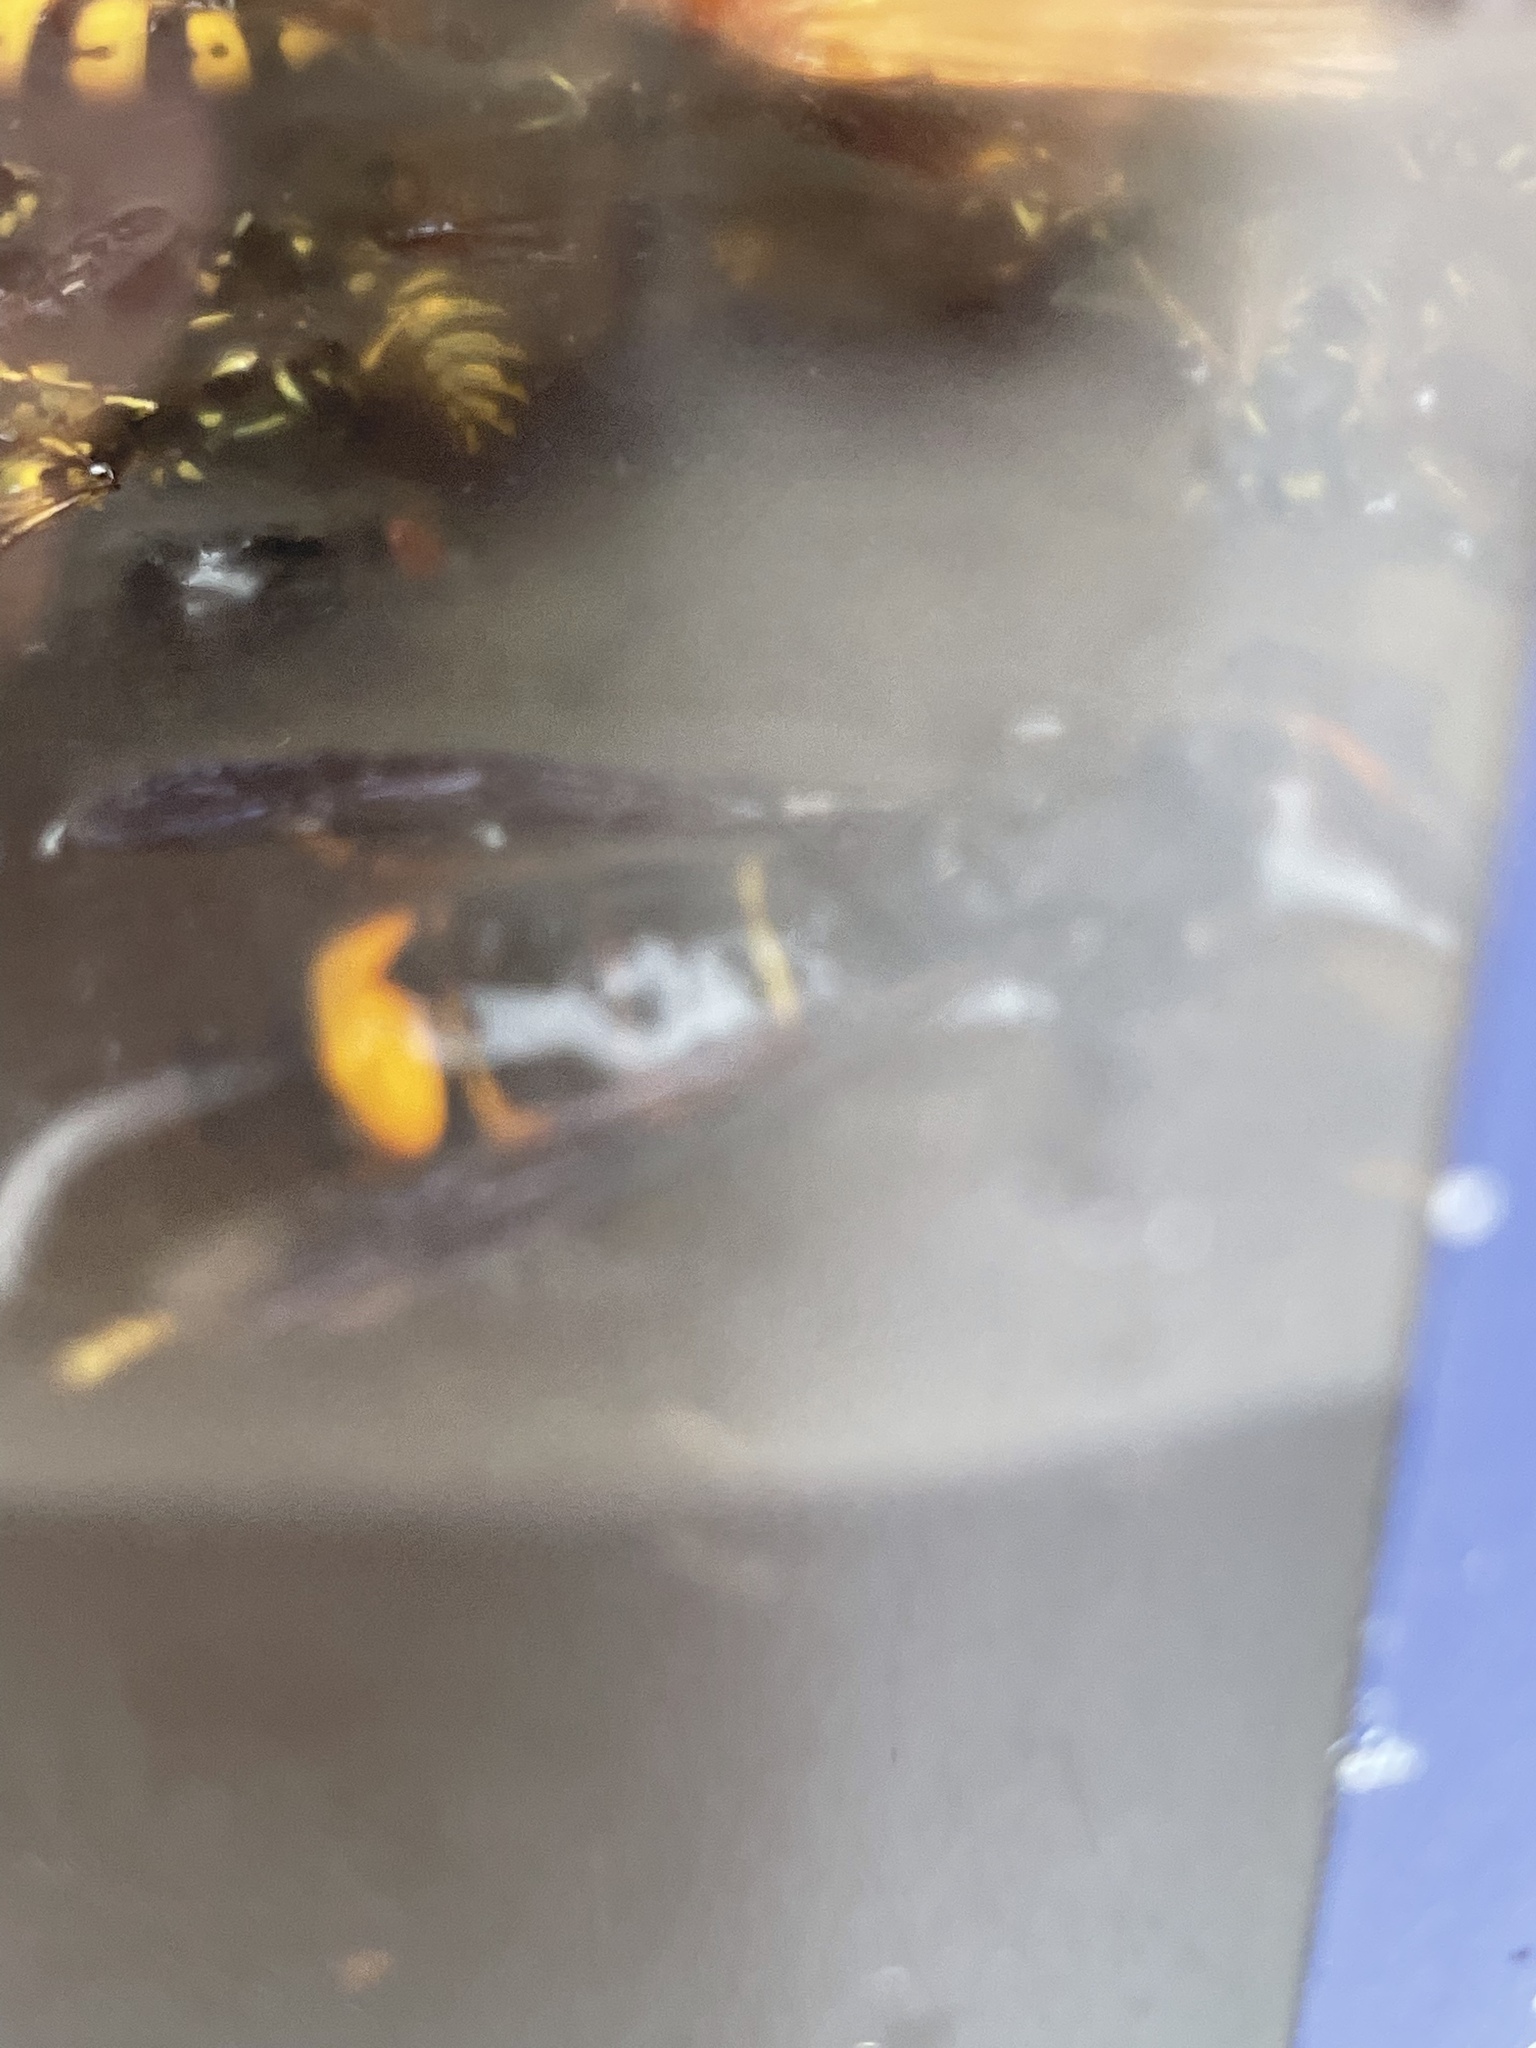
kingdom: Animalia
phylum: Arthropoda
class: Insecta
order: Hymenoptera
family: Vespidae
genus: Vespa
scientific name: Vespa velutina
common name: Asian hornet
